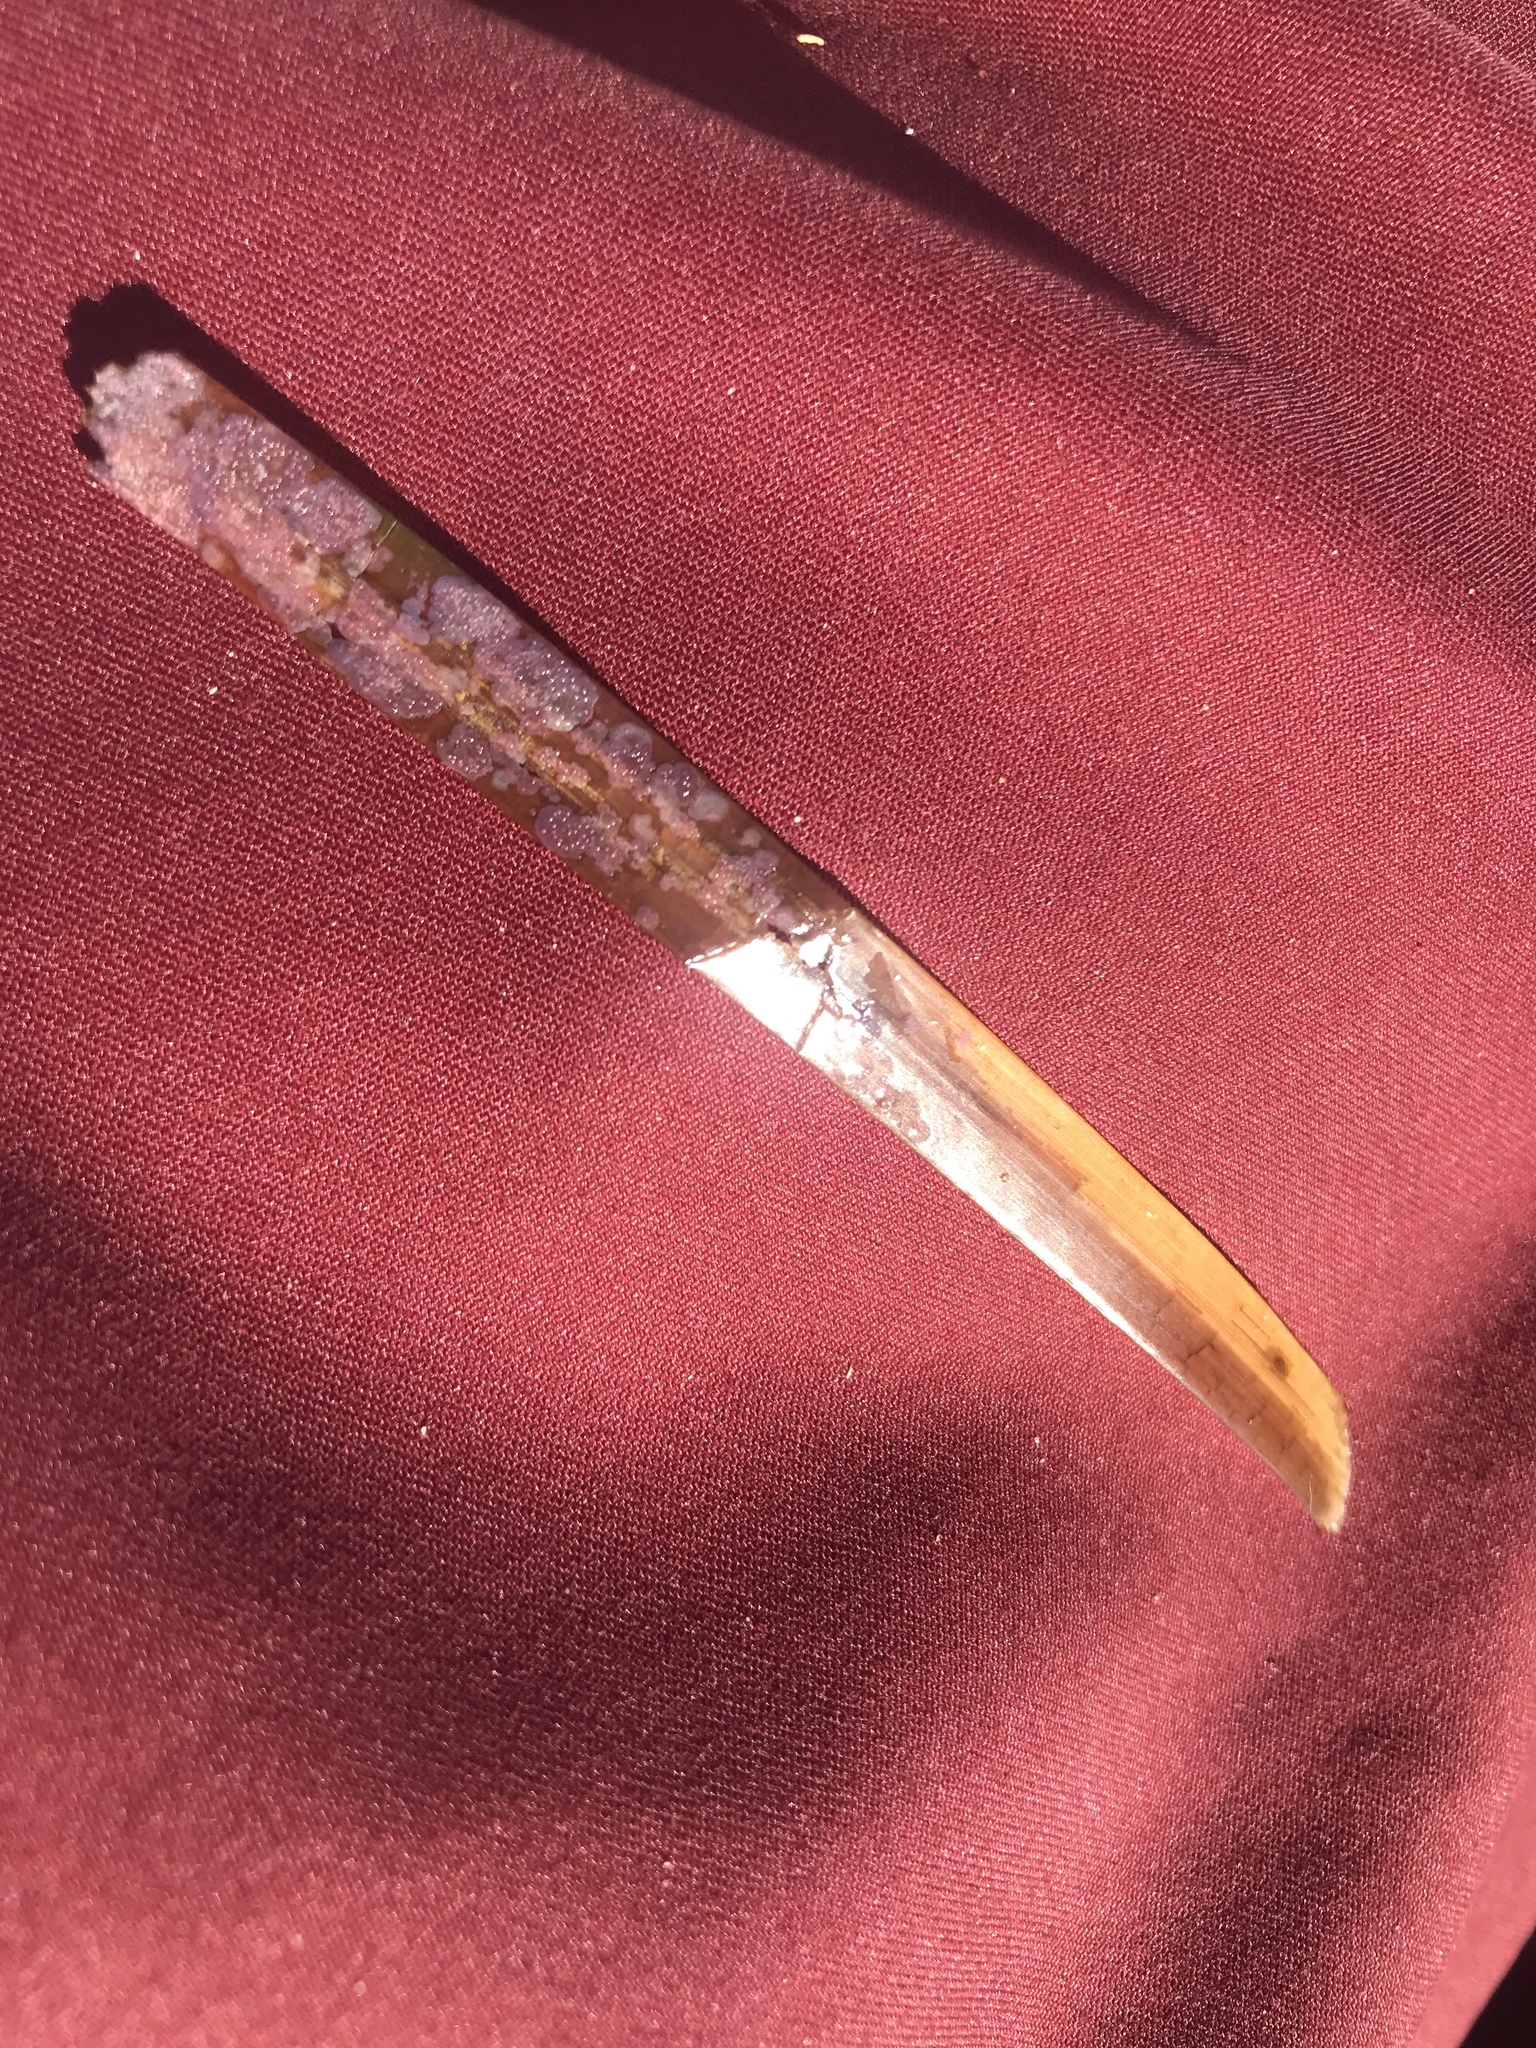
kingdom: Plantae
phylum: Tracheophyta
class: Liliopsida
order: Alismatales
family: Hydrocharitaceae
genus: Thalassia
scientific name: Thalassia testudinum
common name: Species code: tt
